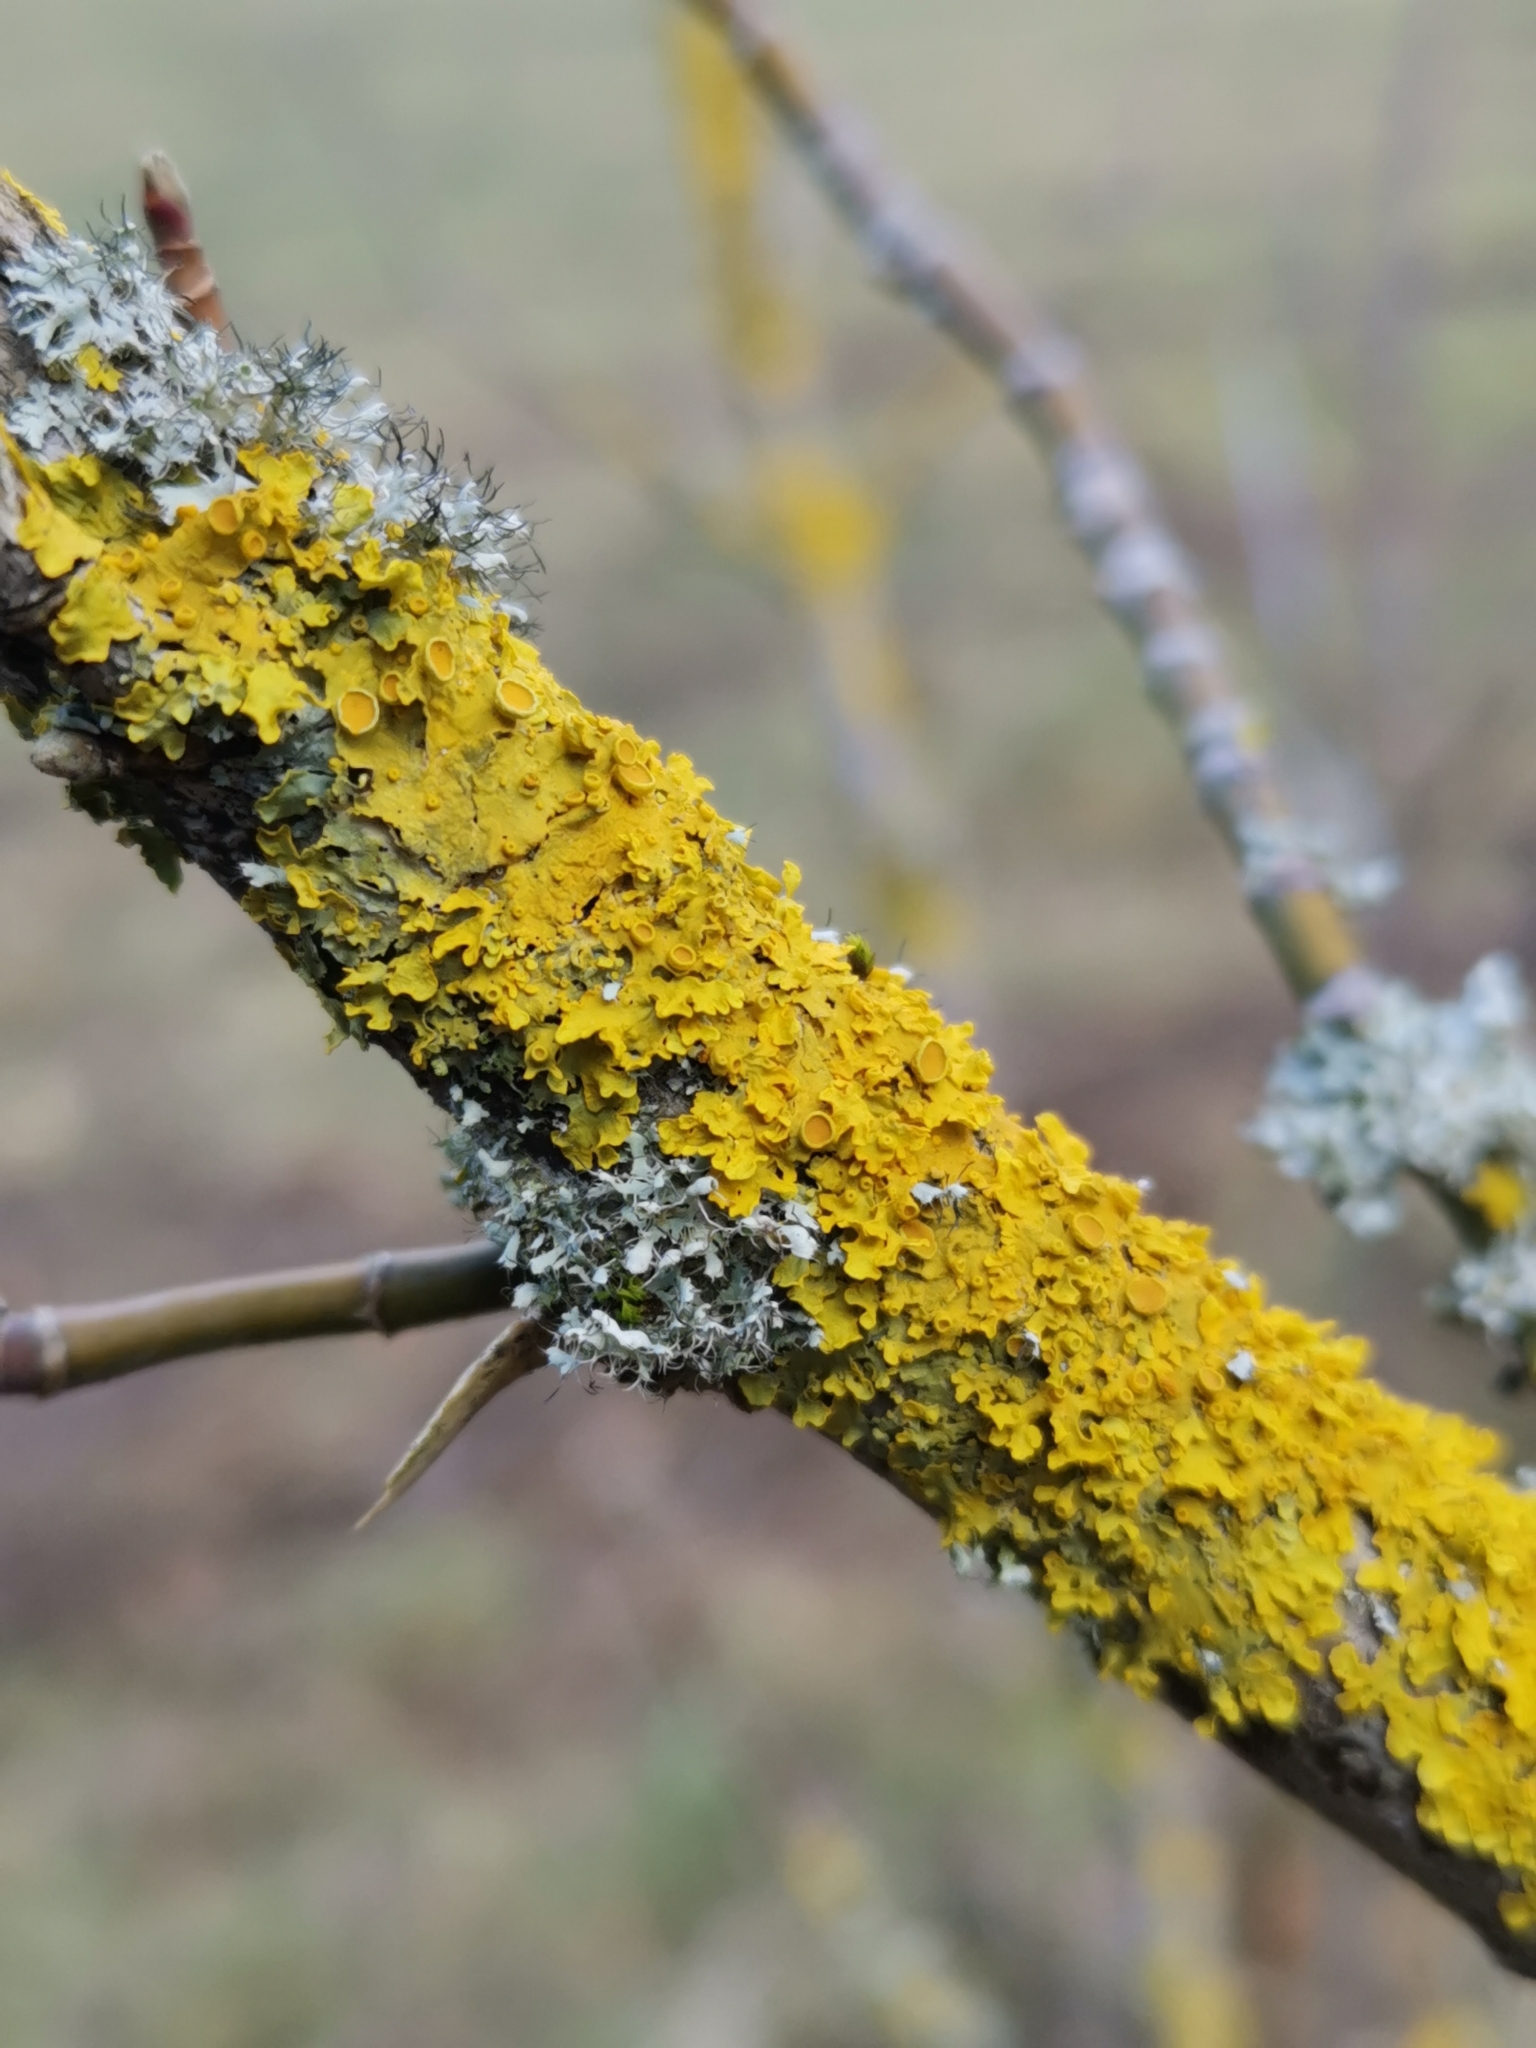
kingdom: Fungi
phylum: Ascomycota
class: Lecanoromycetes
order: Teloschistales
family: Teloschistaceae
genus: Xanthoria
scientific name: Xanthoria parietina
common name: Common orange lichen
